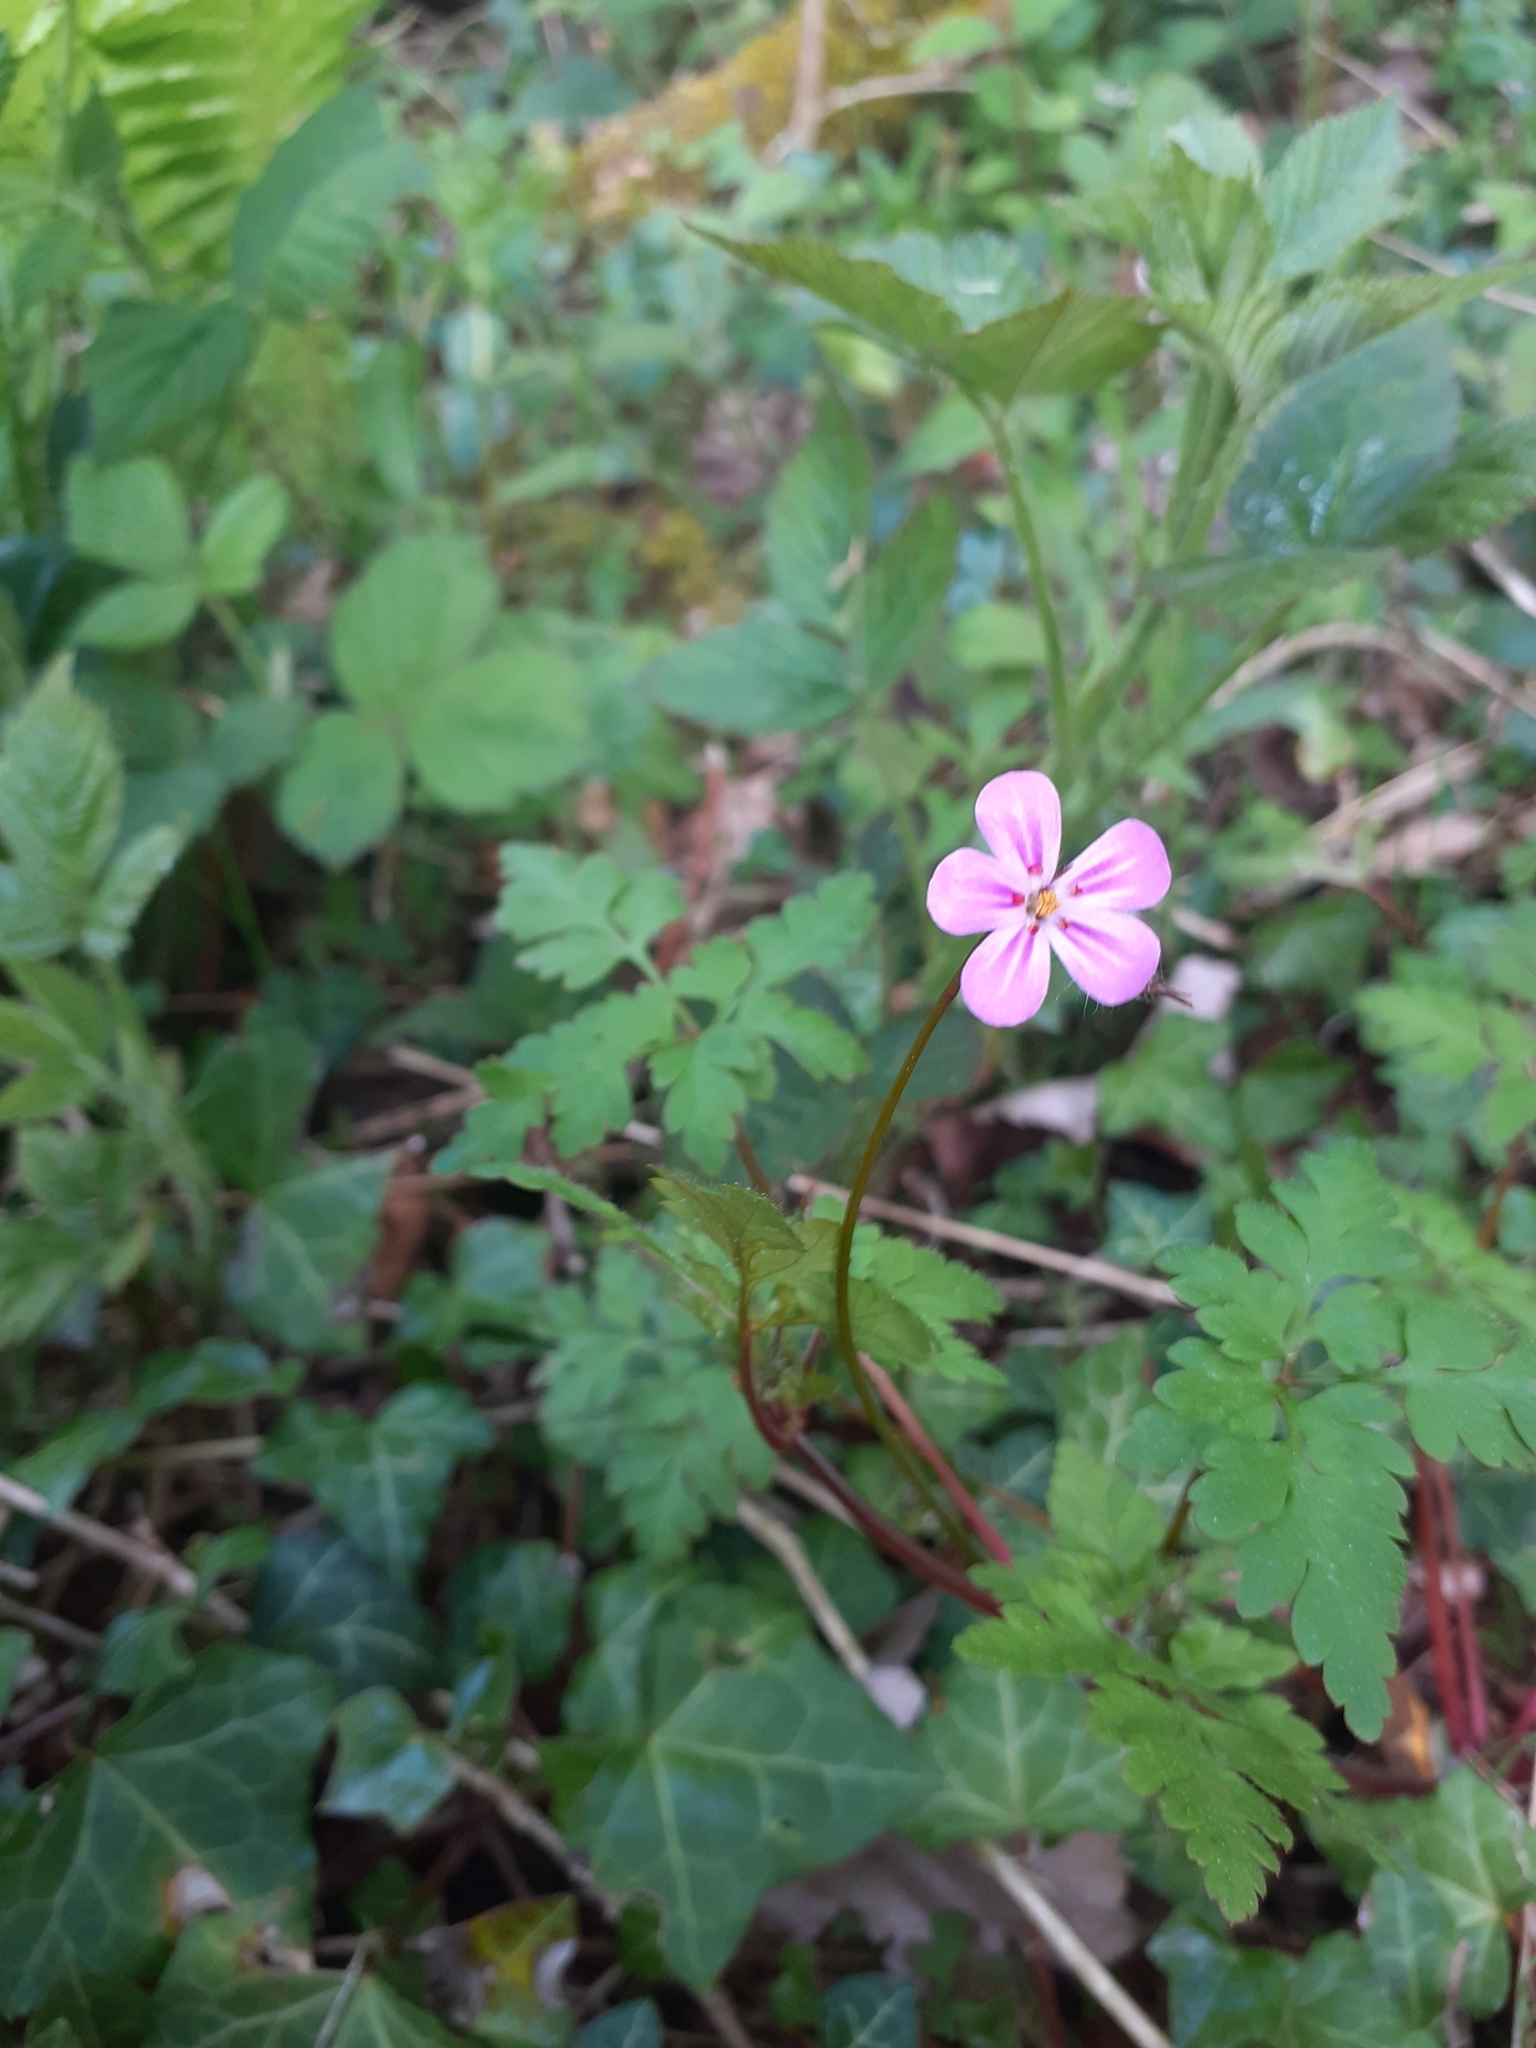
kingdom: Plantae
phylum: Tracheophyta
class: Magnoliopsida
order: Geraniales
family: Geraniaceae
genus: Geranium
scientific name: Geranium robertianum
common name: Herb-robert
